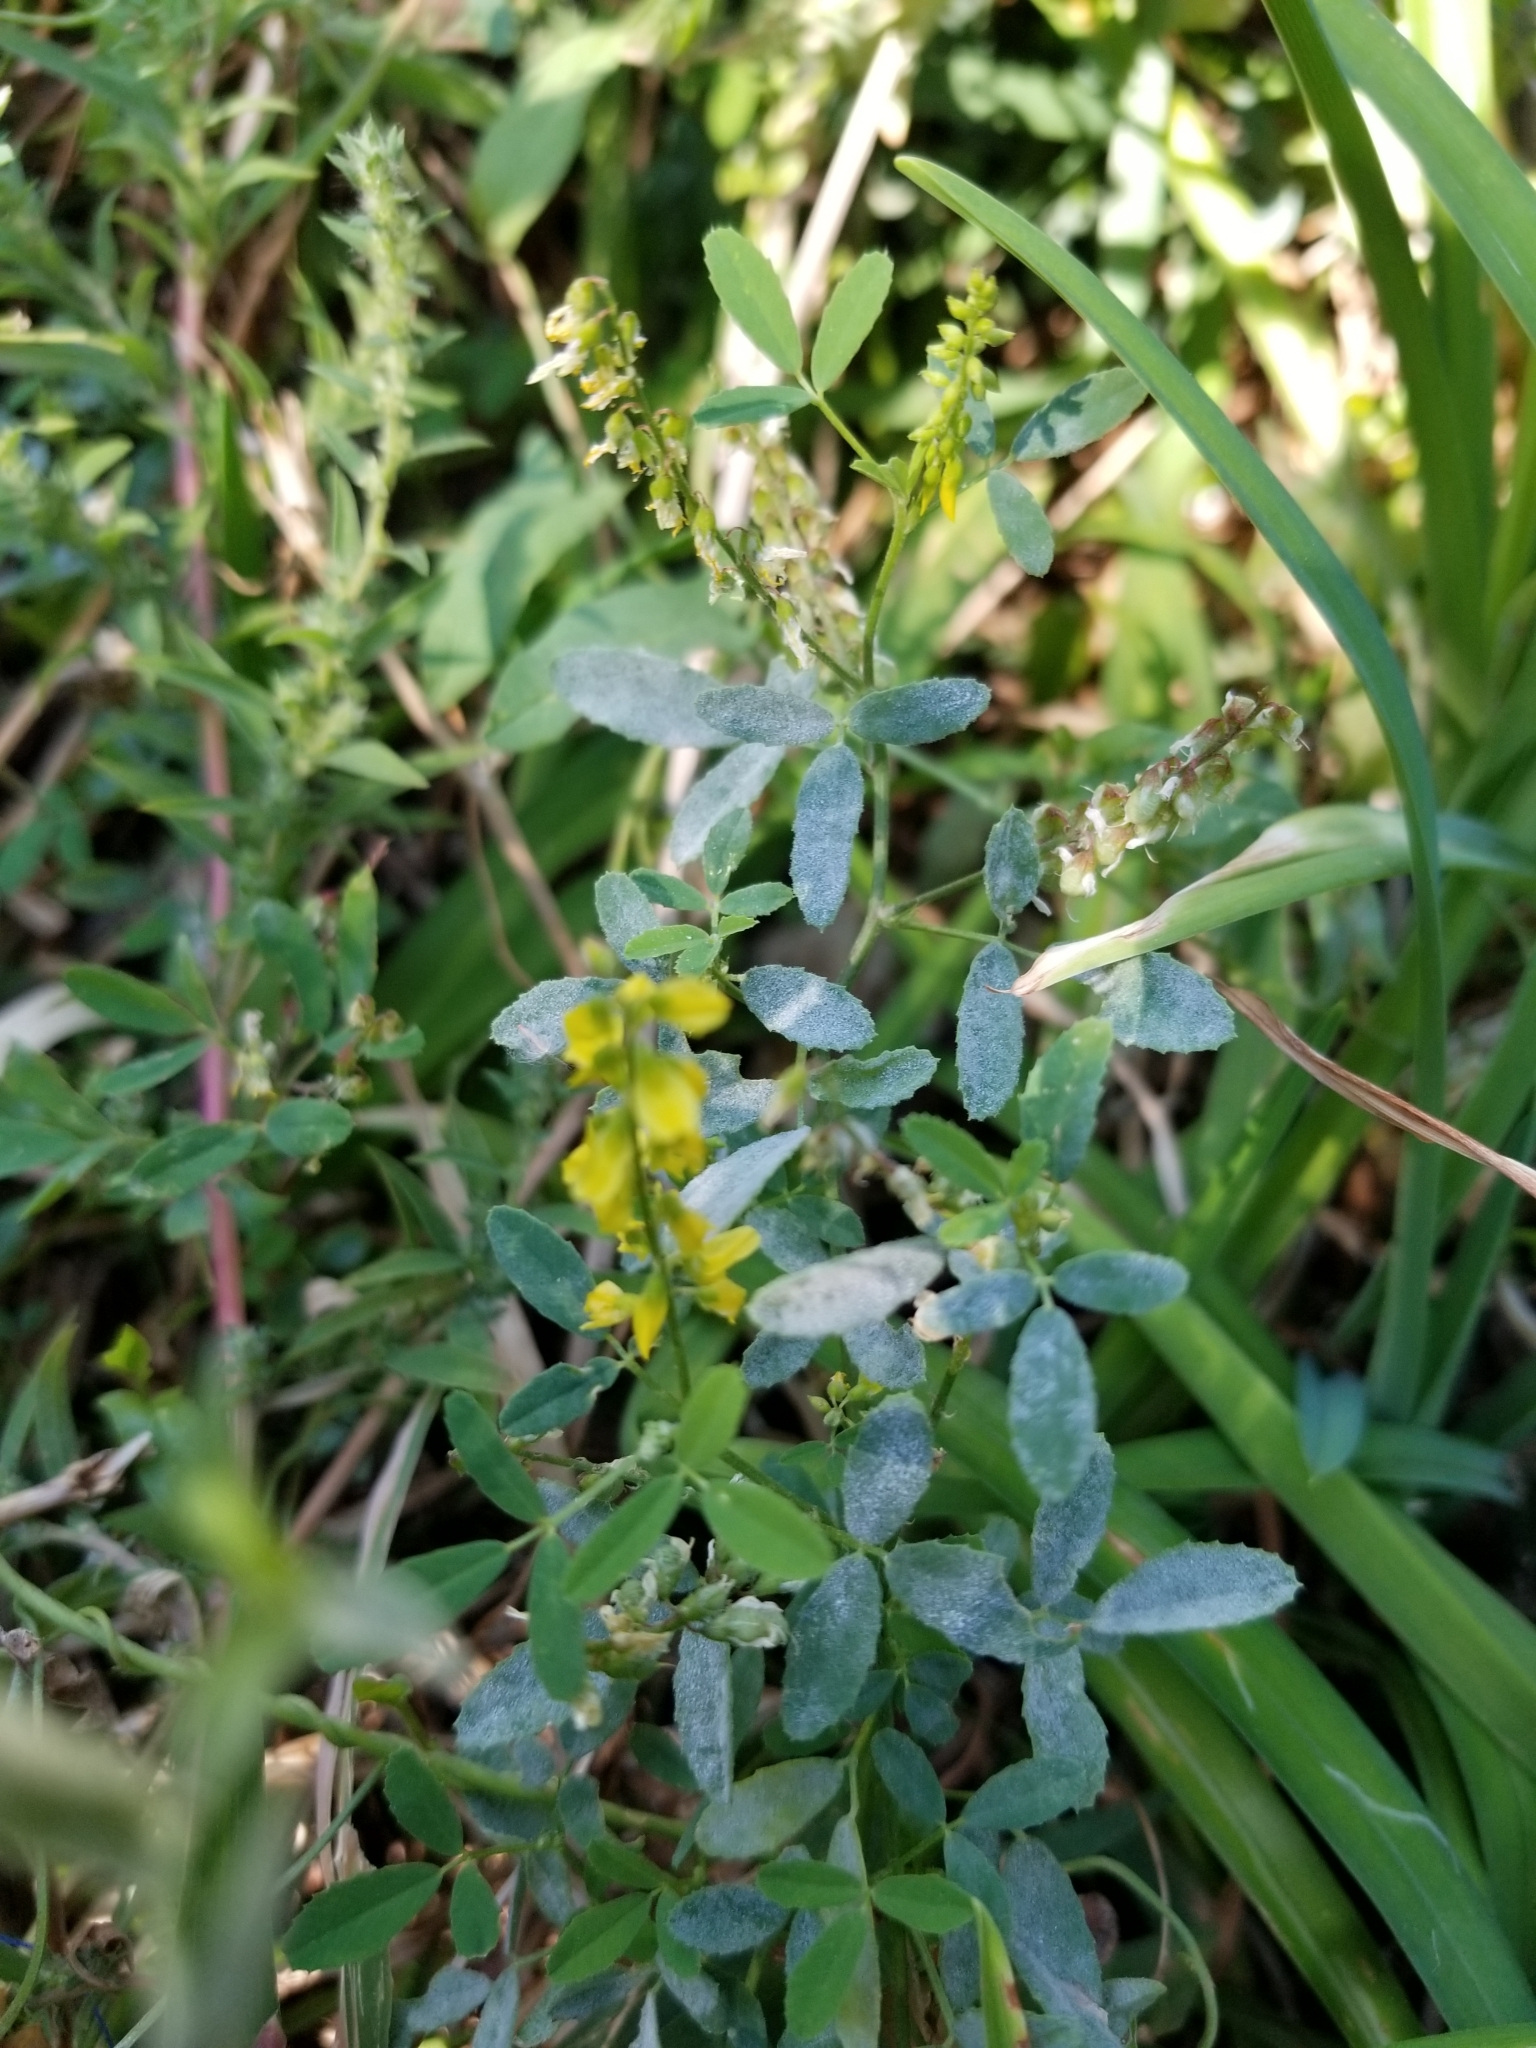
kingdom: Plantae
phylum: Tracheophyta
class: Magnoliopsida
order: Fabales
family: Fabaceae
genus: Melilotus
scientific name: Melilotus officinalis
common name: Sweetclover
